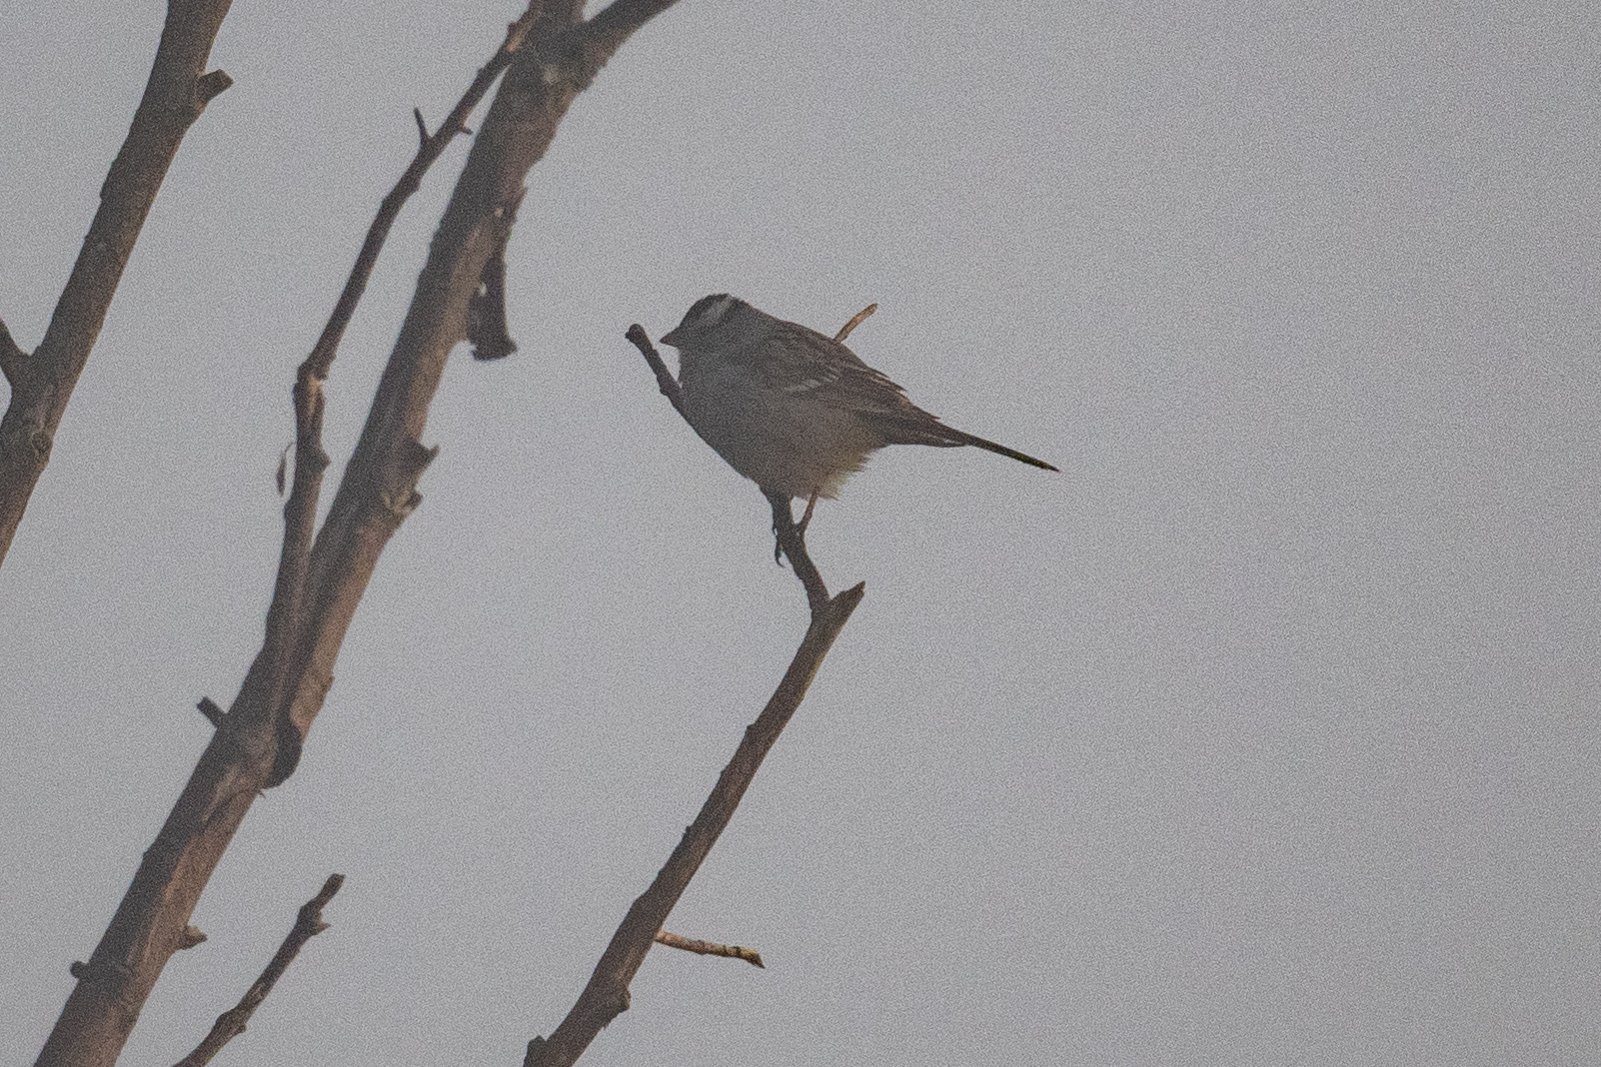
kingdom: Animalia
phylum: Chordata
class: Aves
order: Passeriformes
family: Passerellidae
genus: Zonotrichia
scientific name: Zonotrichia leucophrys
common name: White-crowned sparrow
